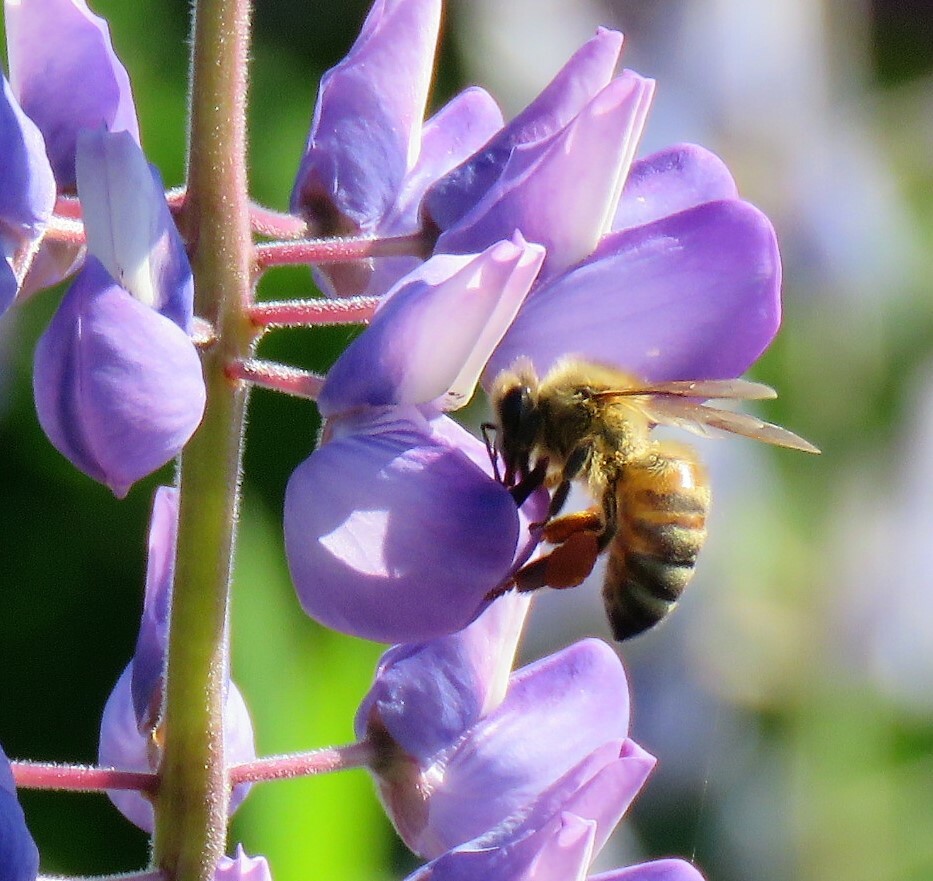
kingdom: Animalia
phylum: Arthropoda
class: Insecta
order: Hymenoptera
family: Apidae
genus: Apis
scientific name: Apis mellifera
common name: Honey bee
